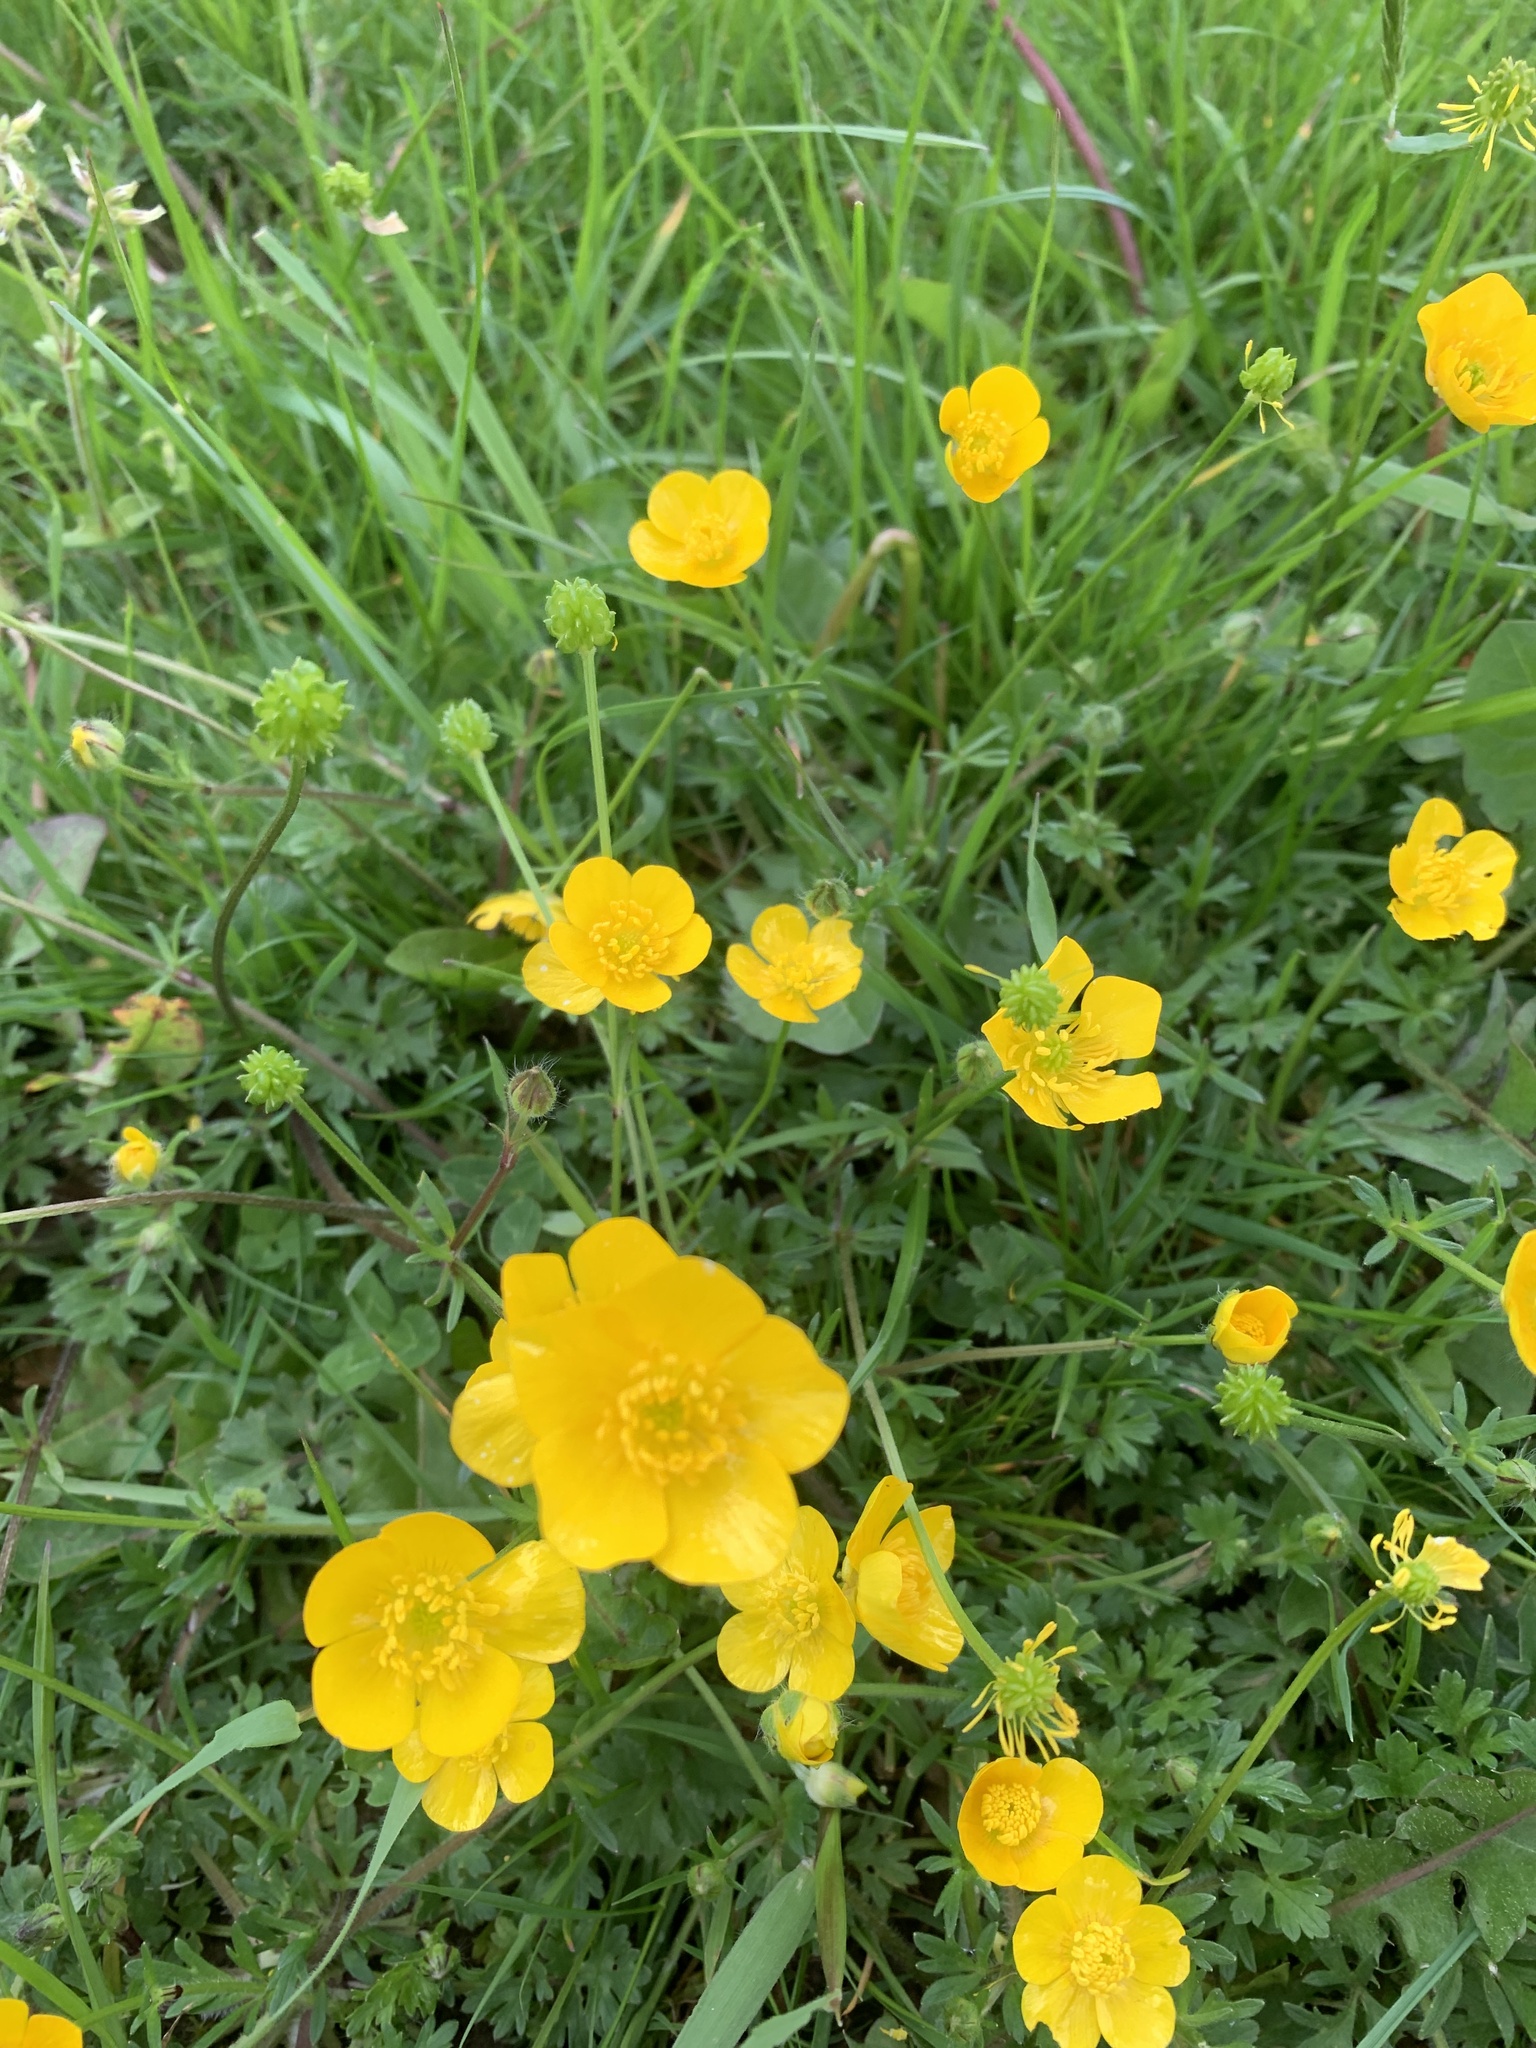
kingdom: Plantae
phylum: Tracheophyta
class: Magnoliopsida
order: Ranunculales
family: Ranunculaceae
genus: Ranunculus
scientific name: Ranunculus acris
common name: Meadow buttercup
